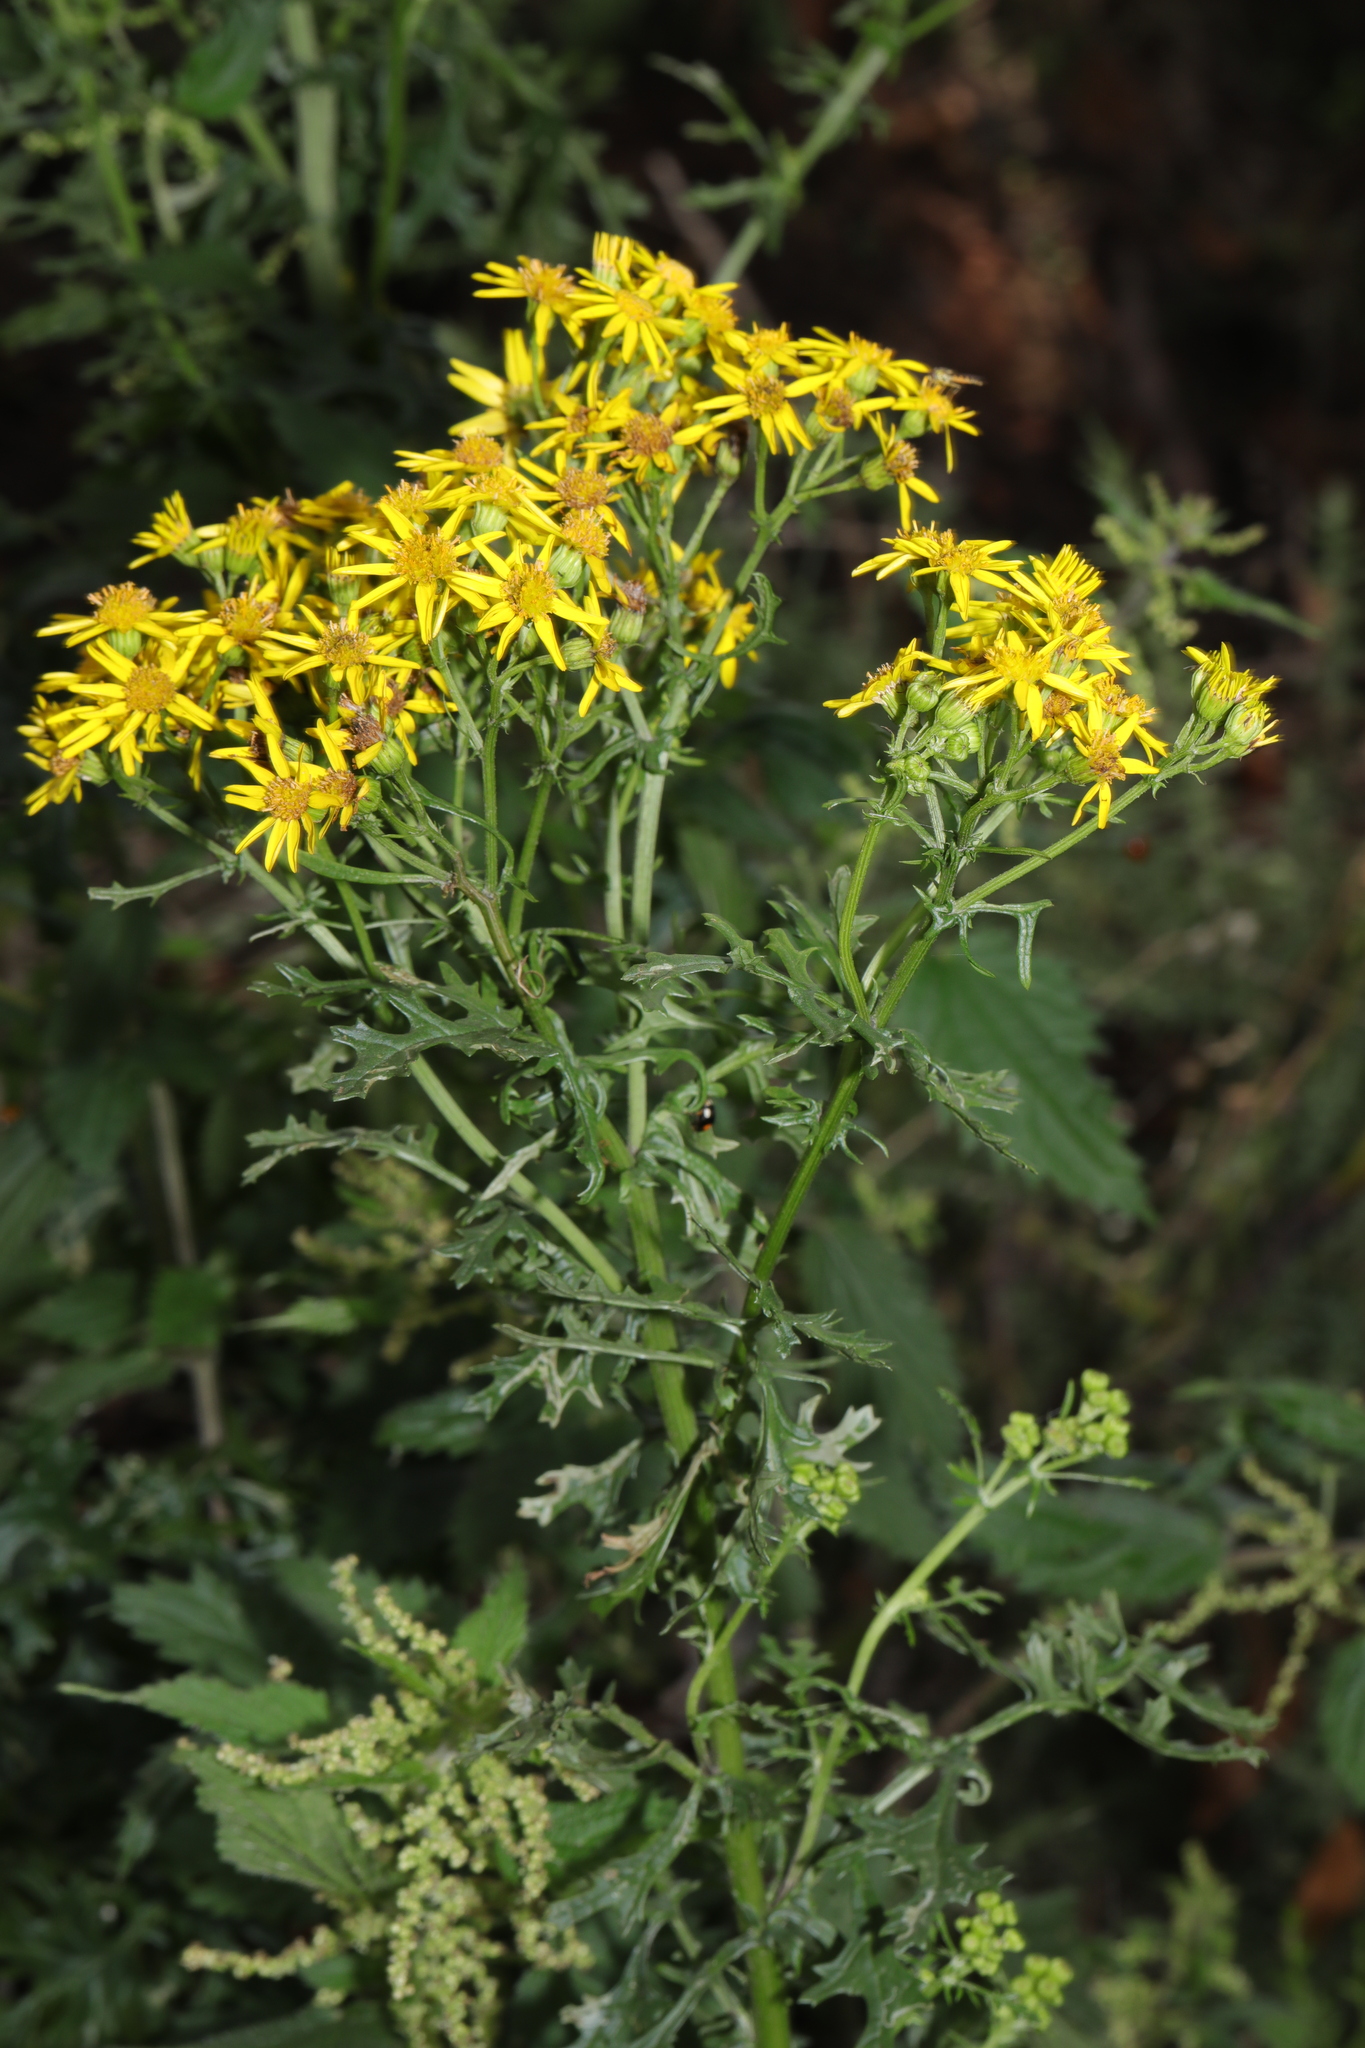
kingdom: Plantae
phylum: Tracheophyta
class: Magnoliopsida
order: Asterales
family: Asteraceae
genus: Jacobaea
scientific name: Jacobaea vulgaris
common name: Stinking willie
